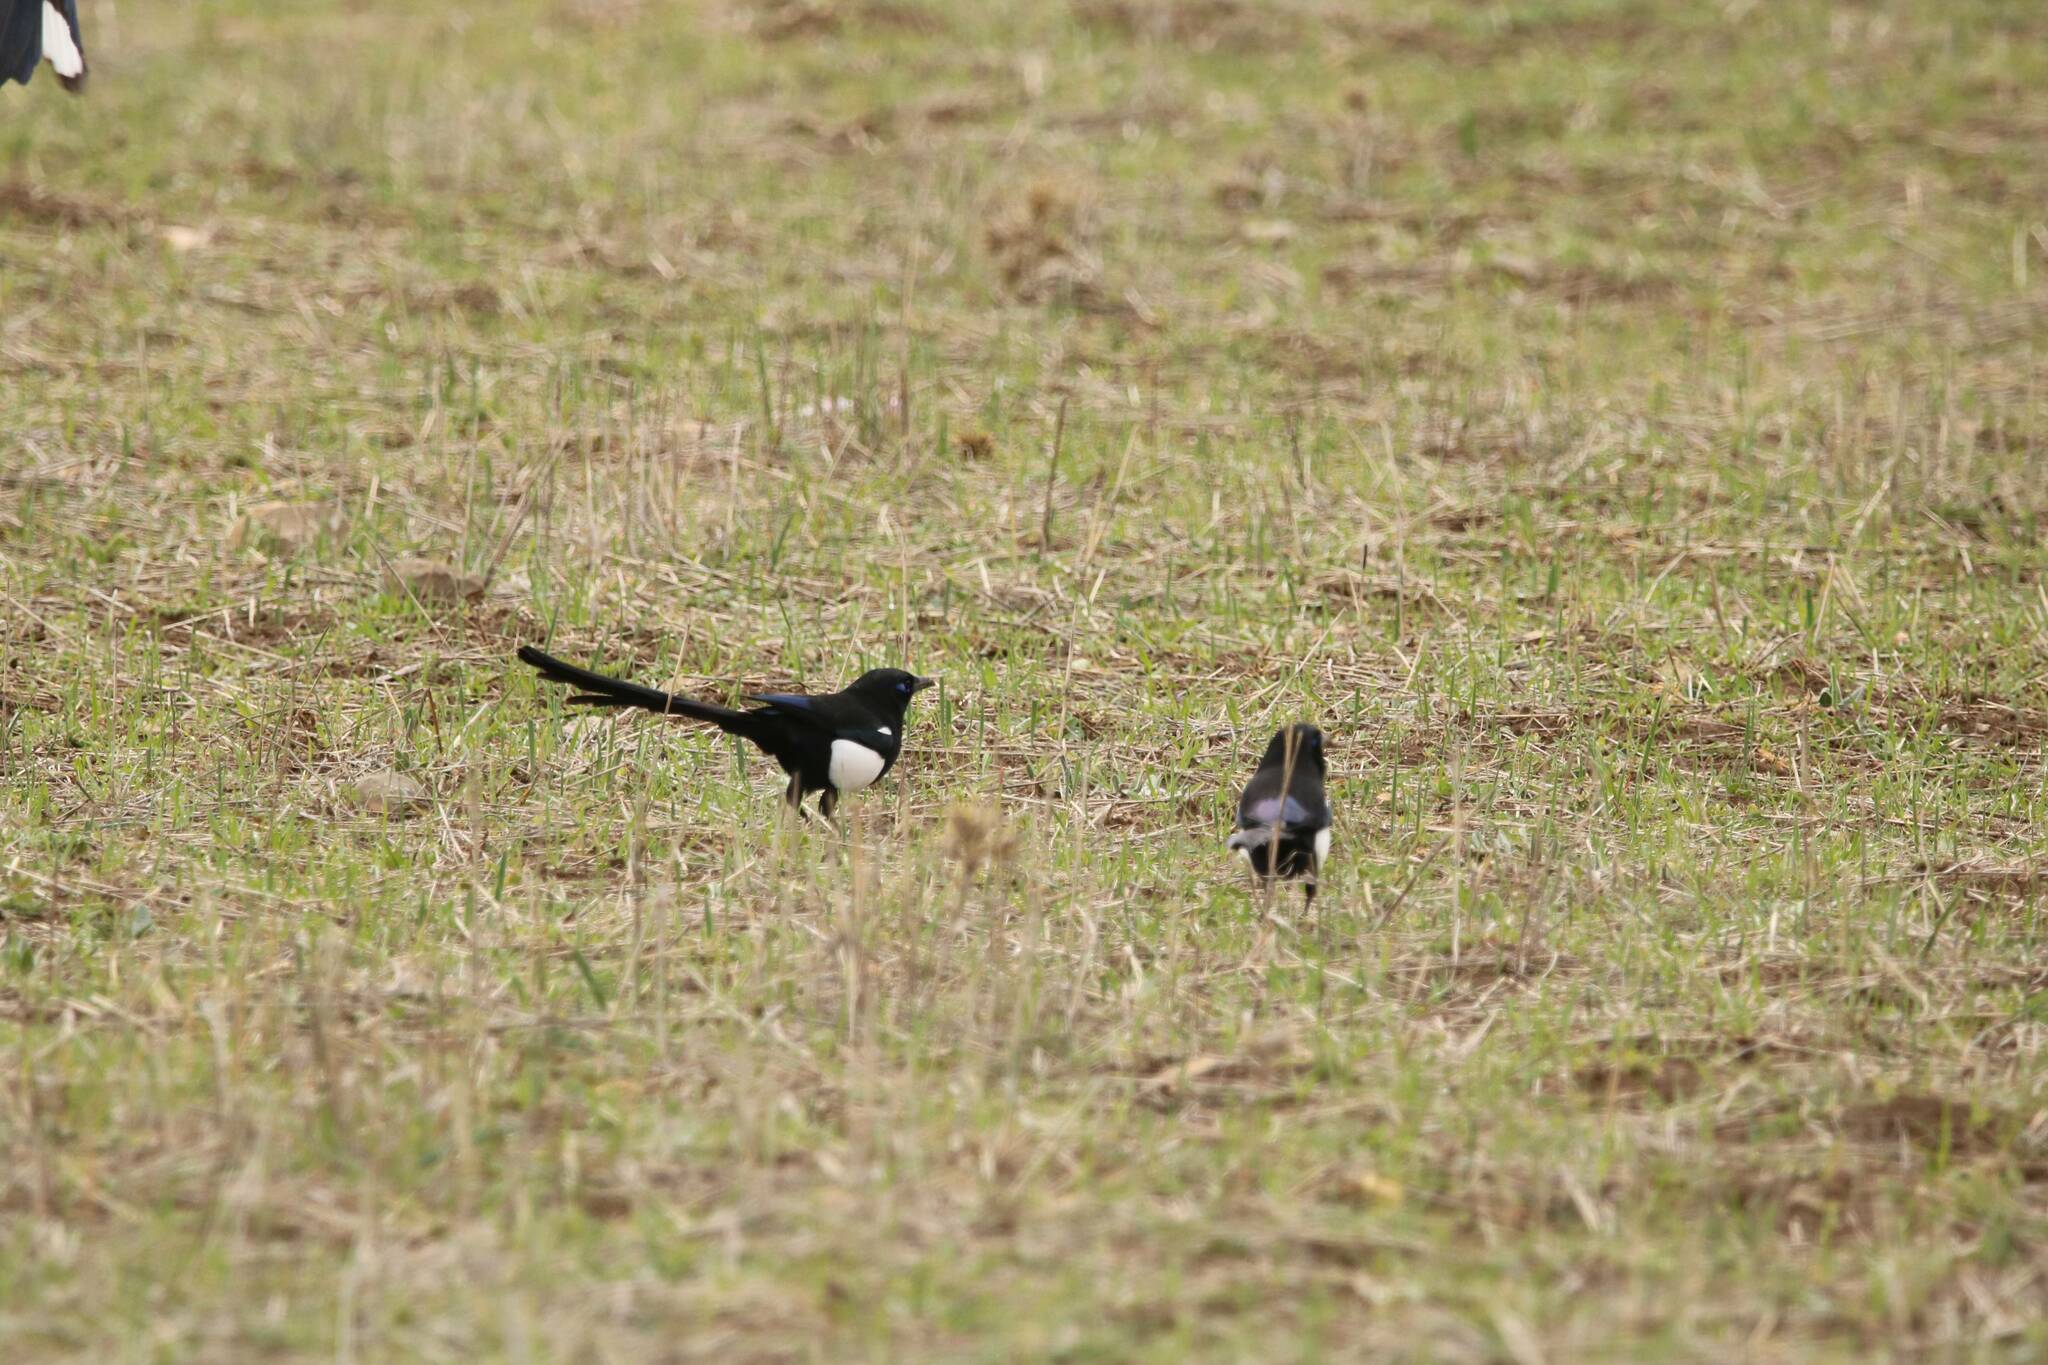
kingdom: Animalia
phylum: Chordata
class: Aves
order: Passeriformes
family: Corvidae
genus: Pica
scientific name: Pica mauritanica
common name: Maghreb magpie
